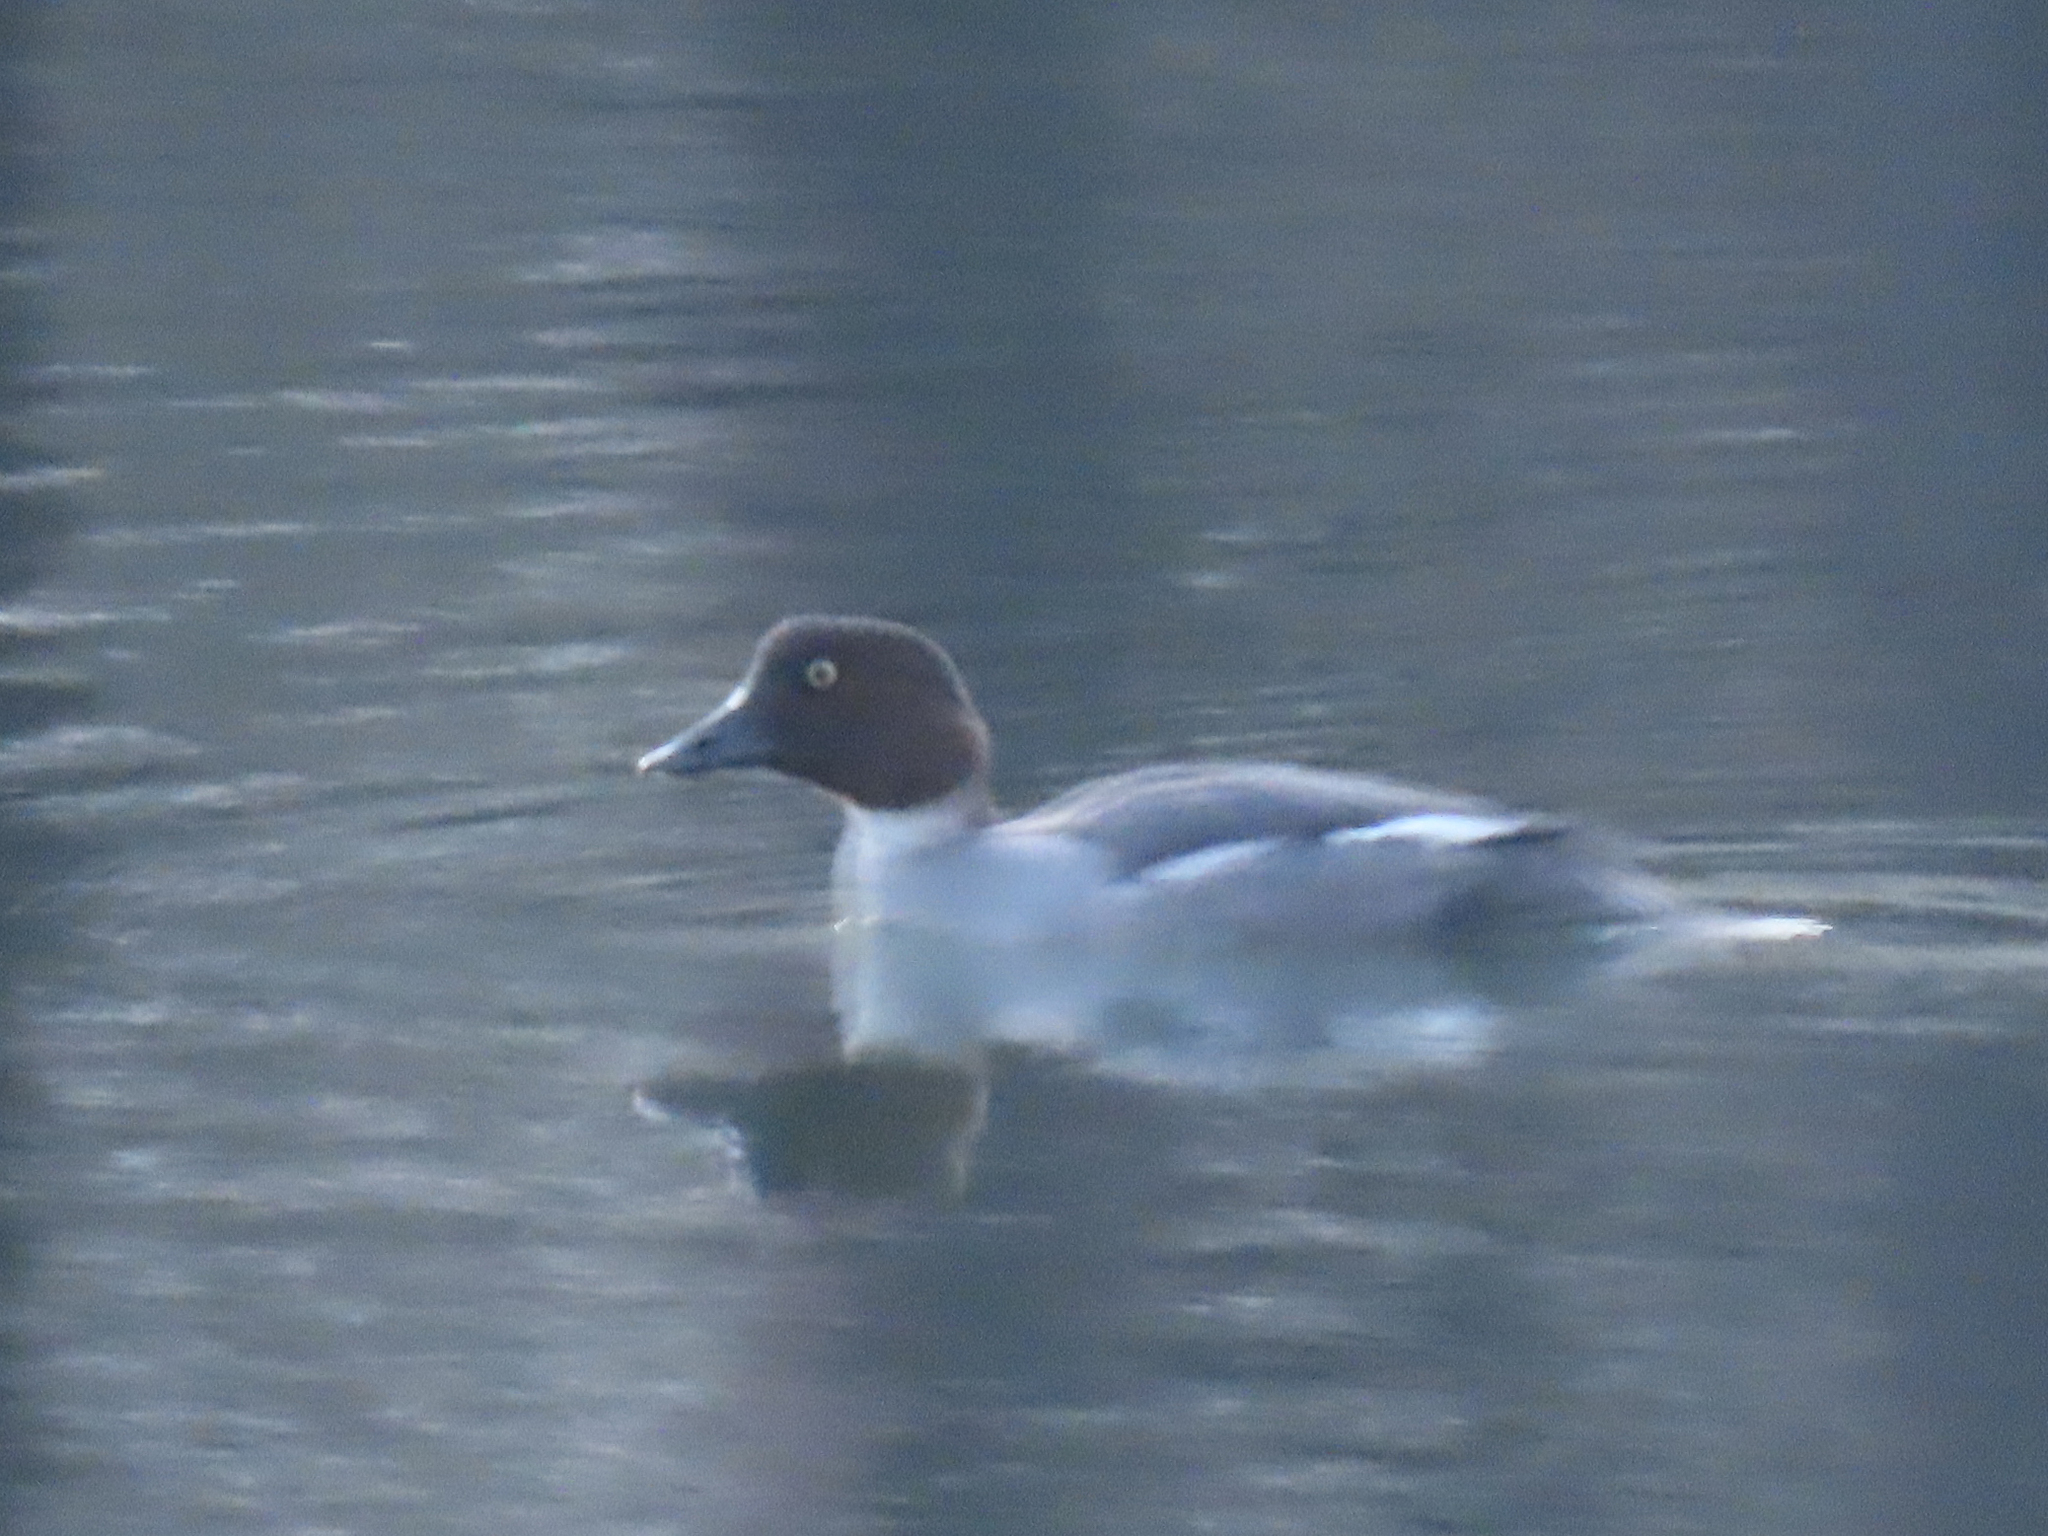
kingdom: Animalia
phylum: Chordata
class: Aves
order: Anseriformes
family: Anatidae
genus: Bucephala
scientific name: Bucephala clangula
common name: Common goldeneye
